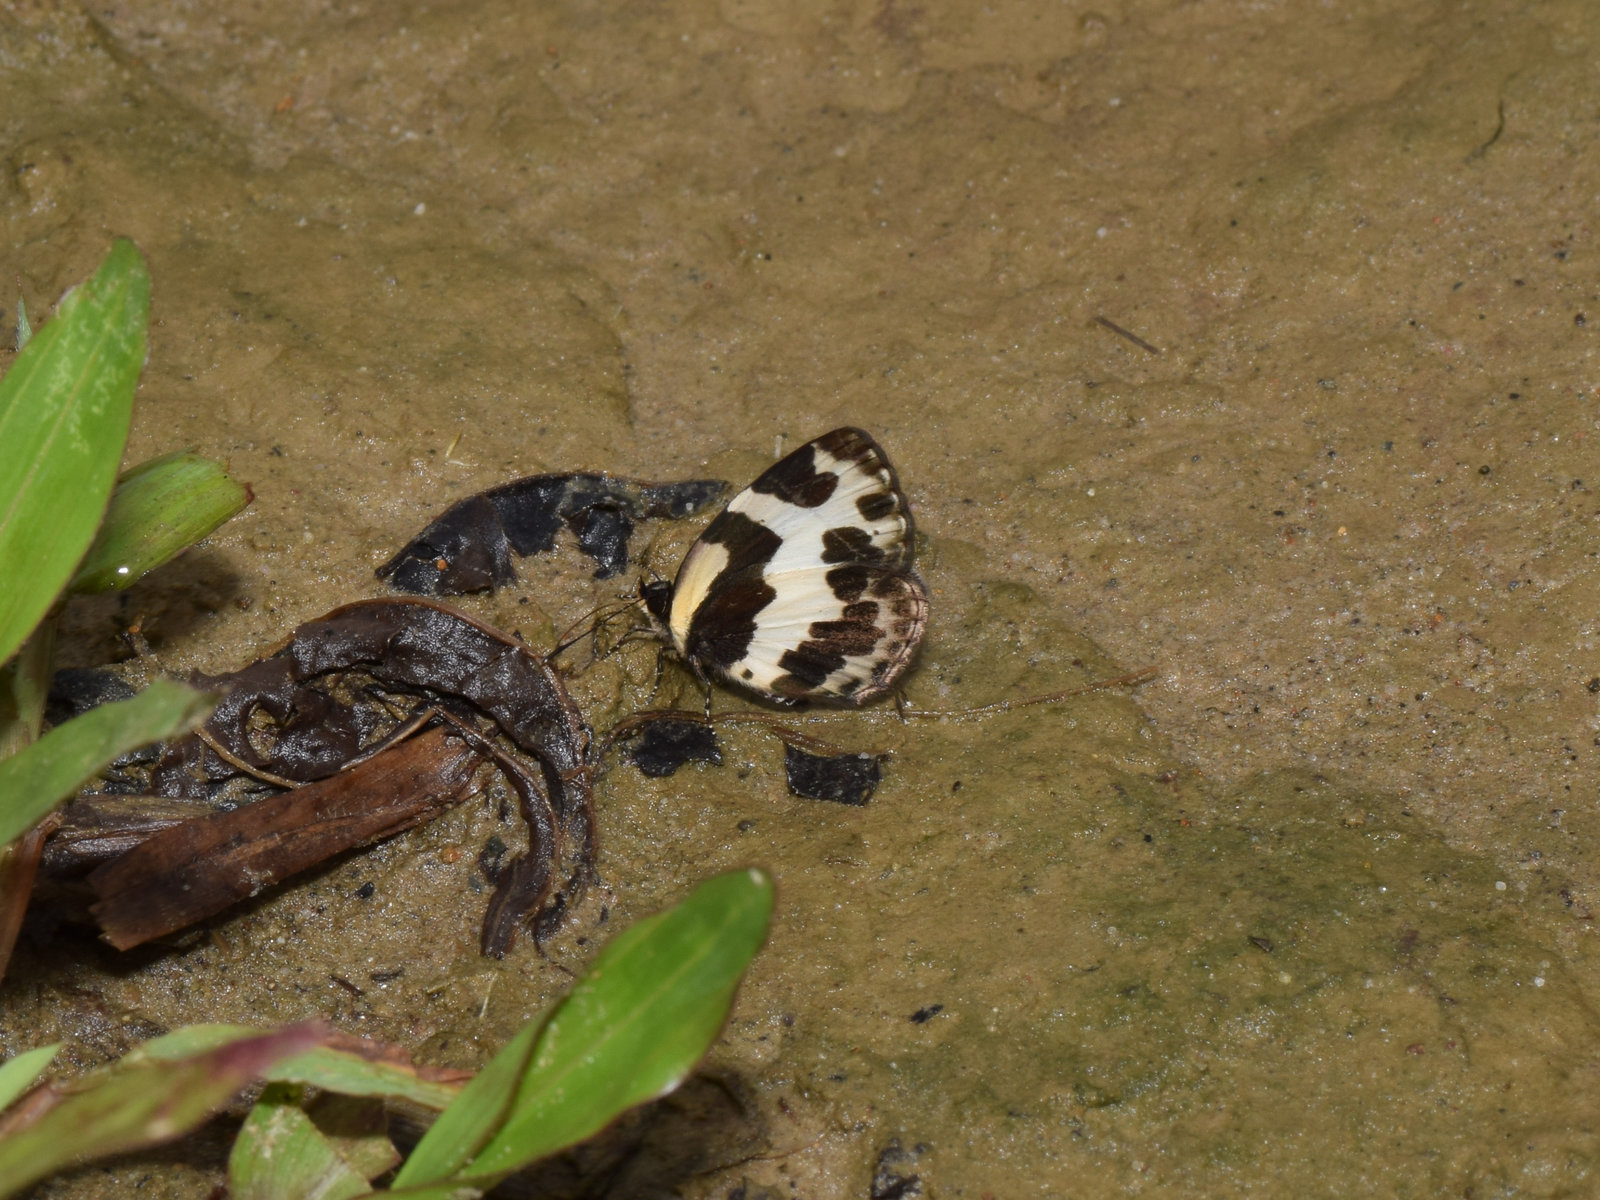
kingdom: Animalia
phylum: Arthropoda
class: Insecta
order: Lepidoptera
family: Lycaenidae
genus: Caleta
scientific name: Caleta elna
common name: Elbowed pierrot
